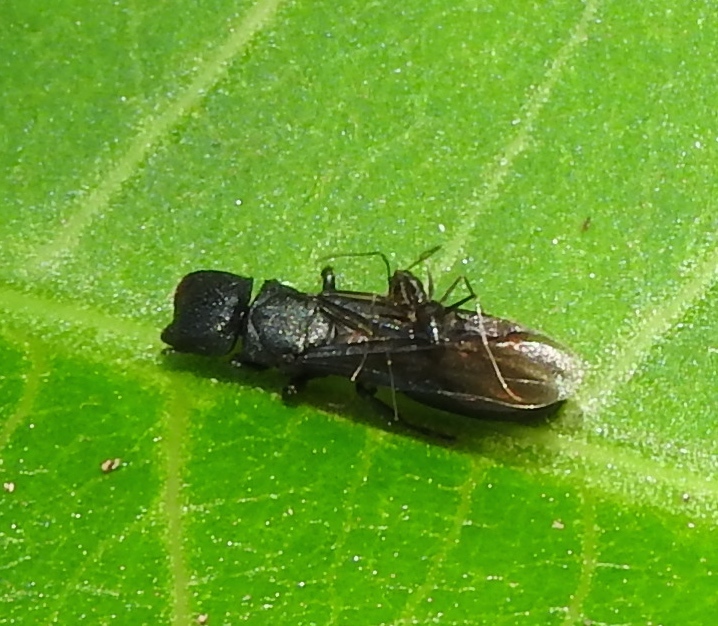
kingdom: Animalia
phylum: Arthropoda
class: Insecta
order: Hymenoptera
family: Formicidae
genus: Cephalotes
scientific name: Cephalotes
